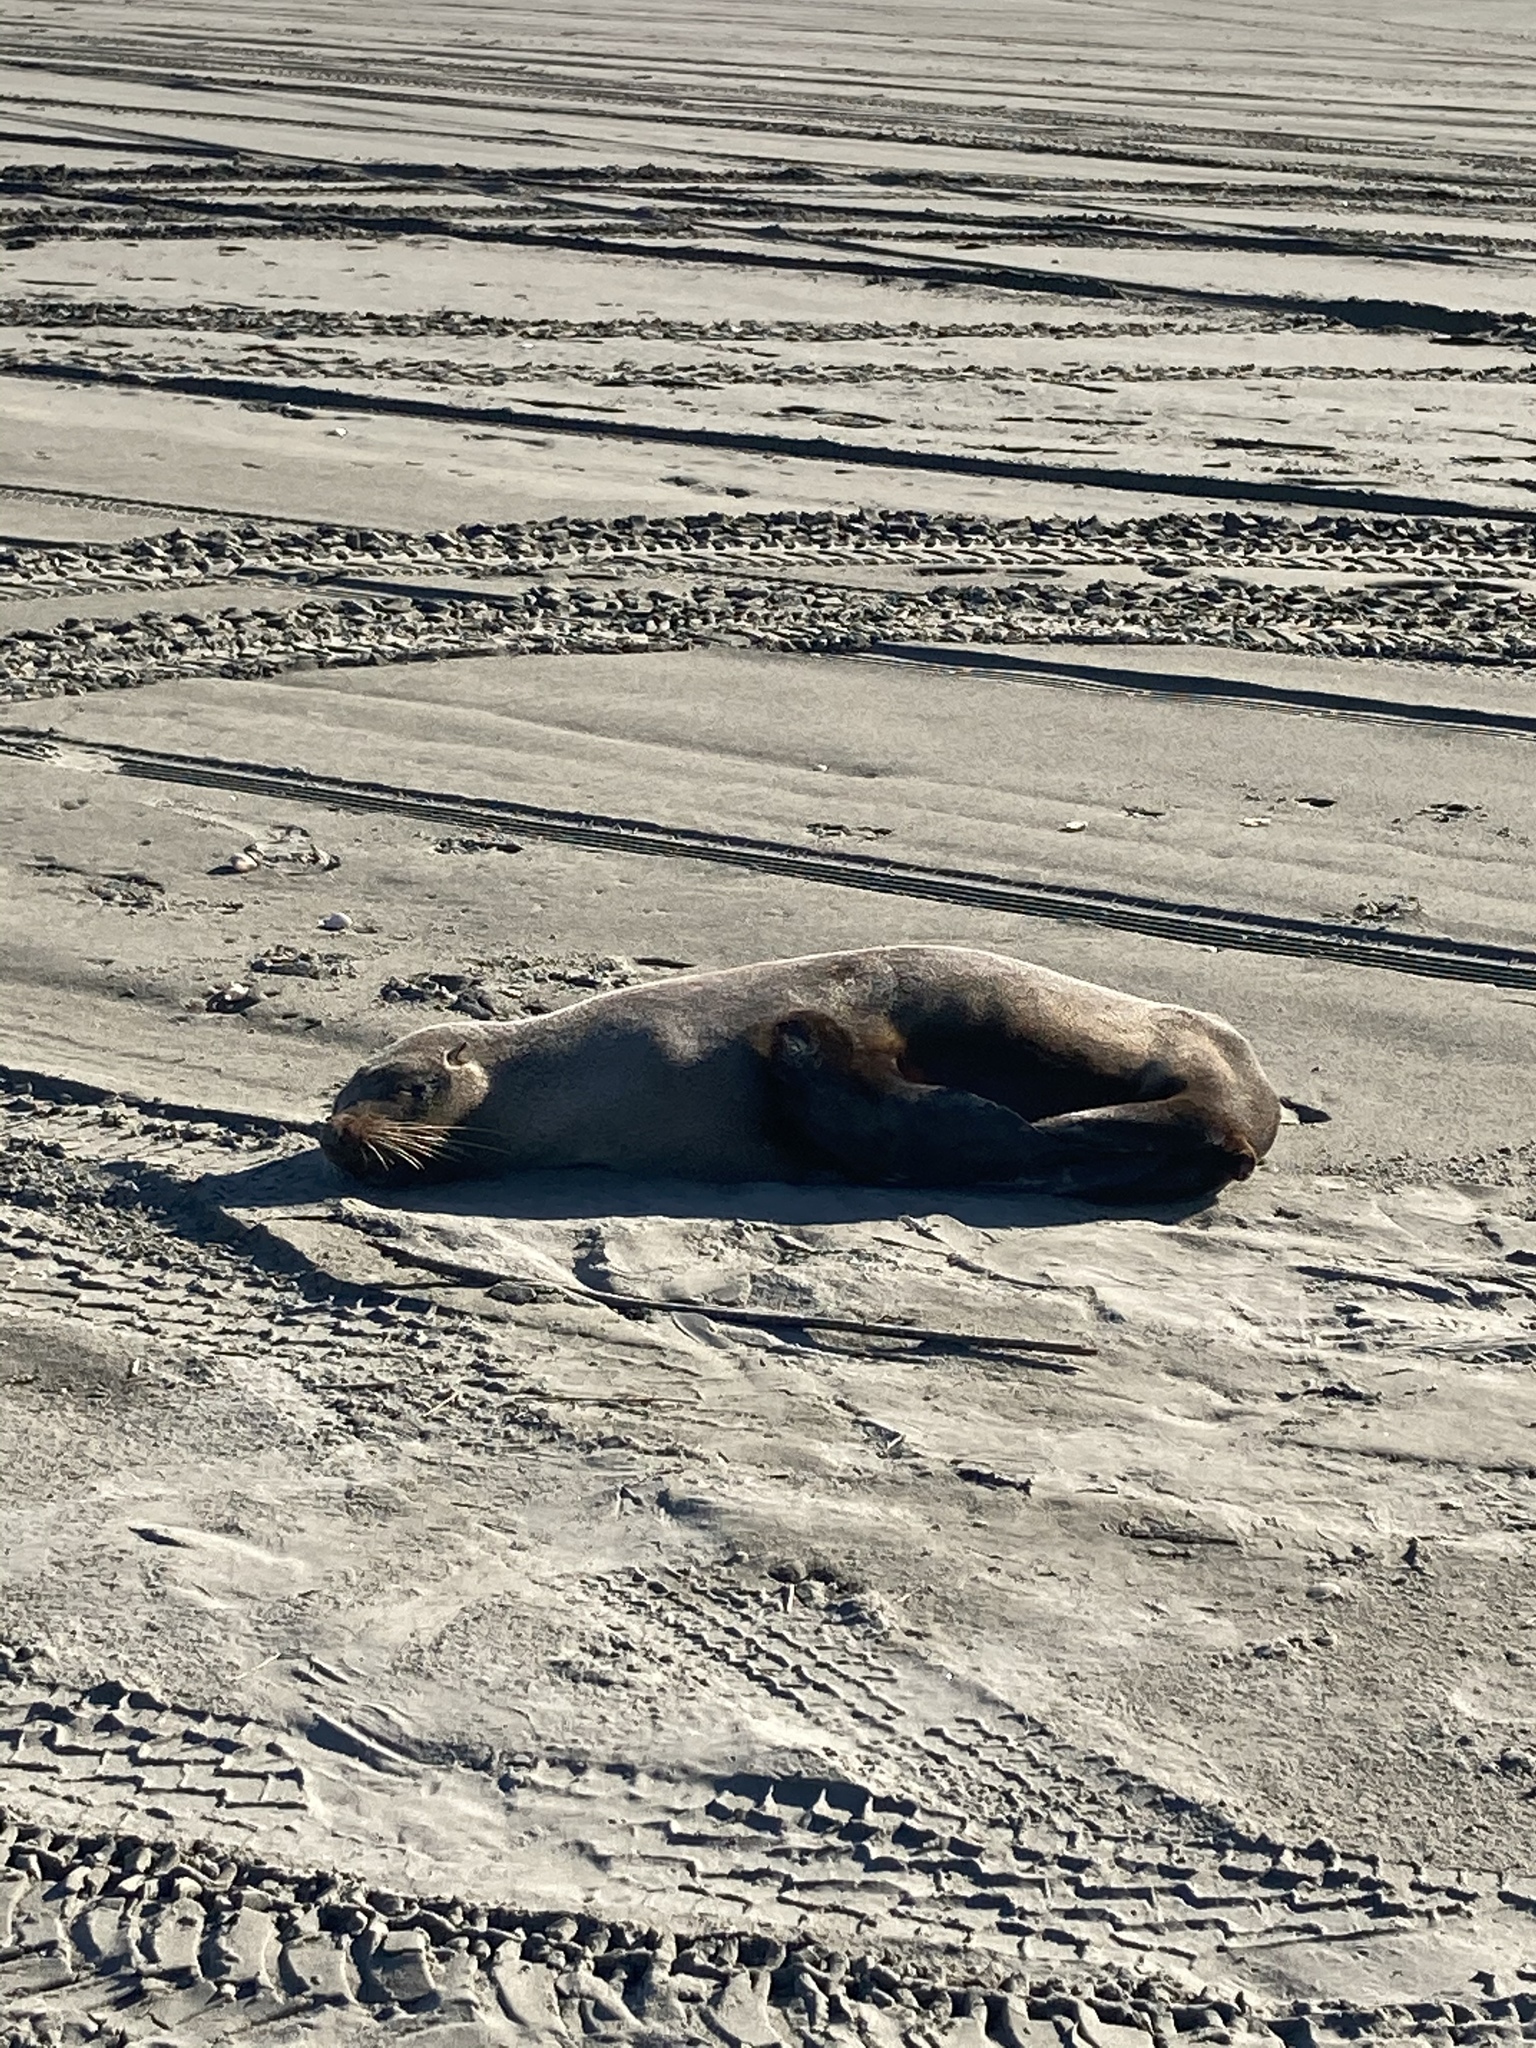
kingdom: Animalia
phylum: Chordata
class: Mammalia
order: Carnivora
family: Otariidae
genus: Arctocephalus
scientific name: Arctocephalus forsteri
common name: New zealand fur seal
